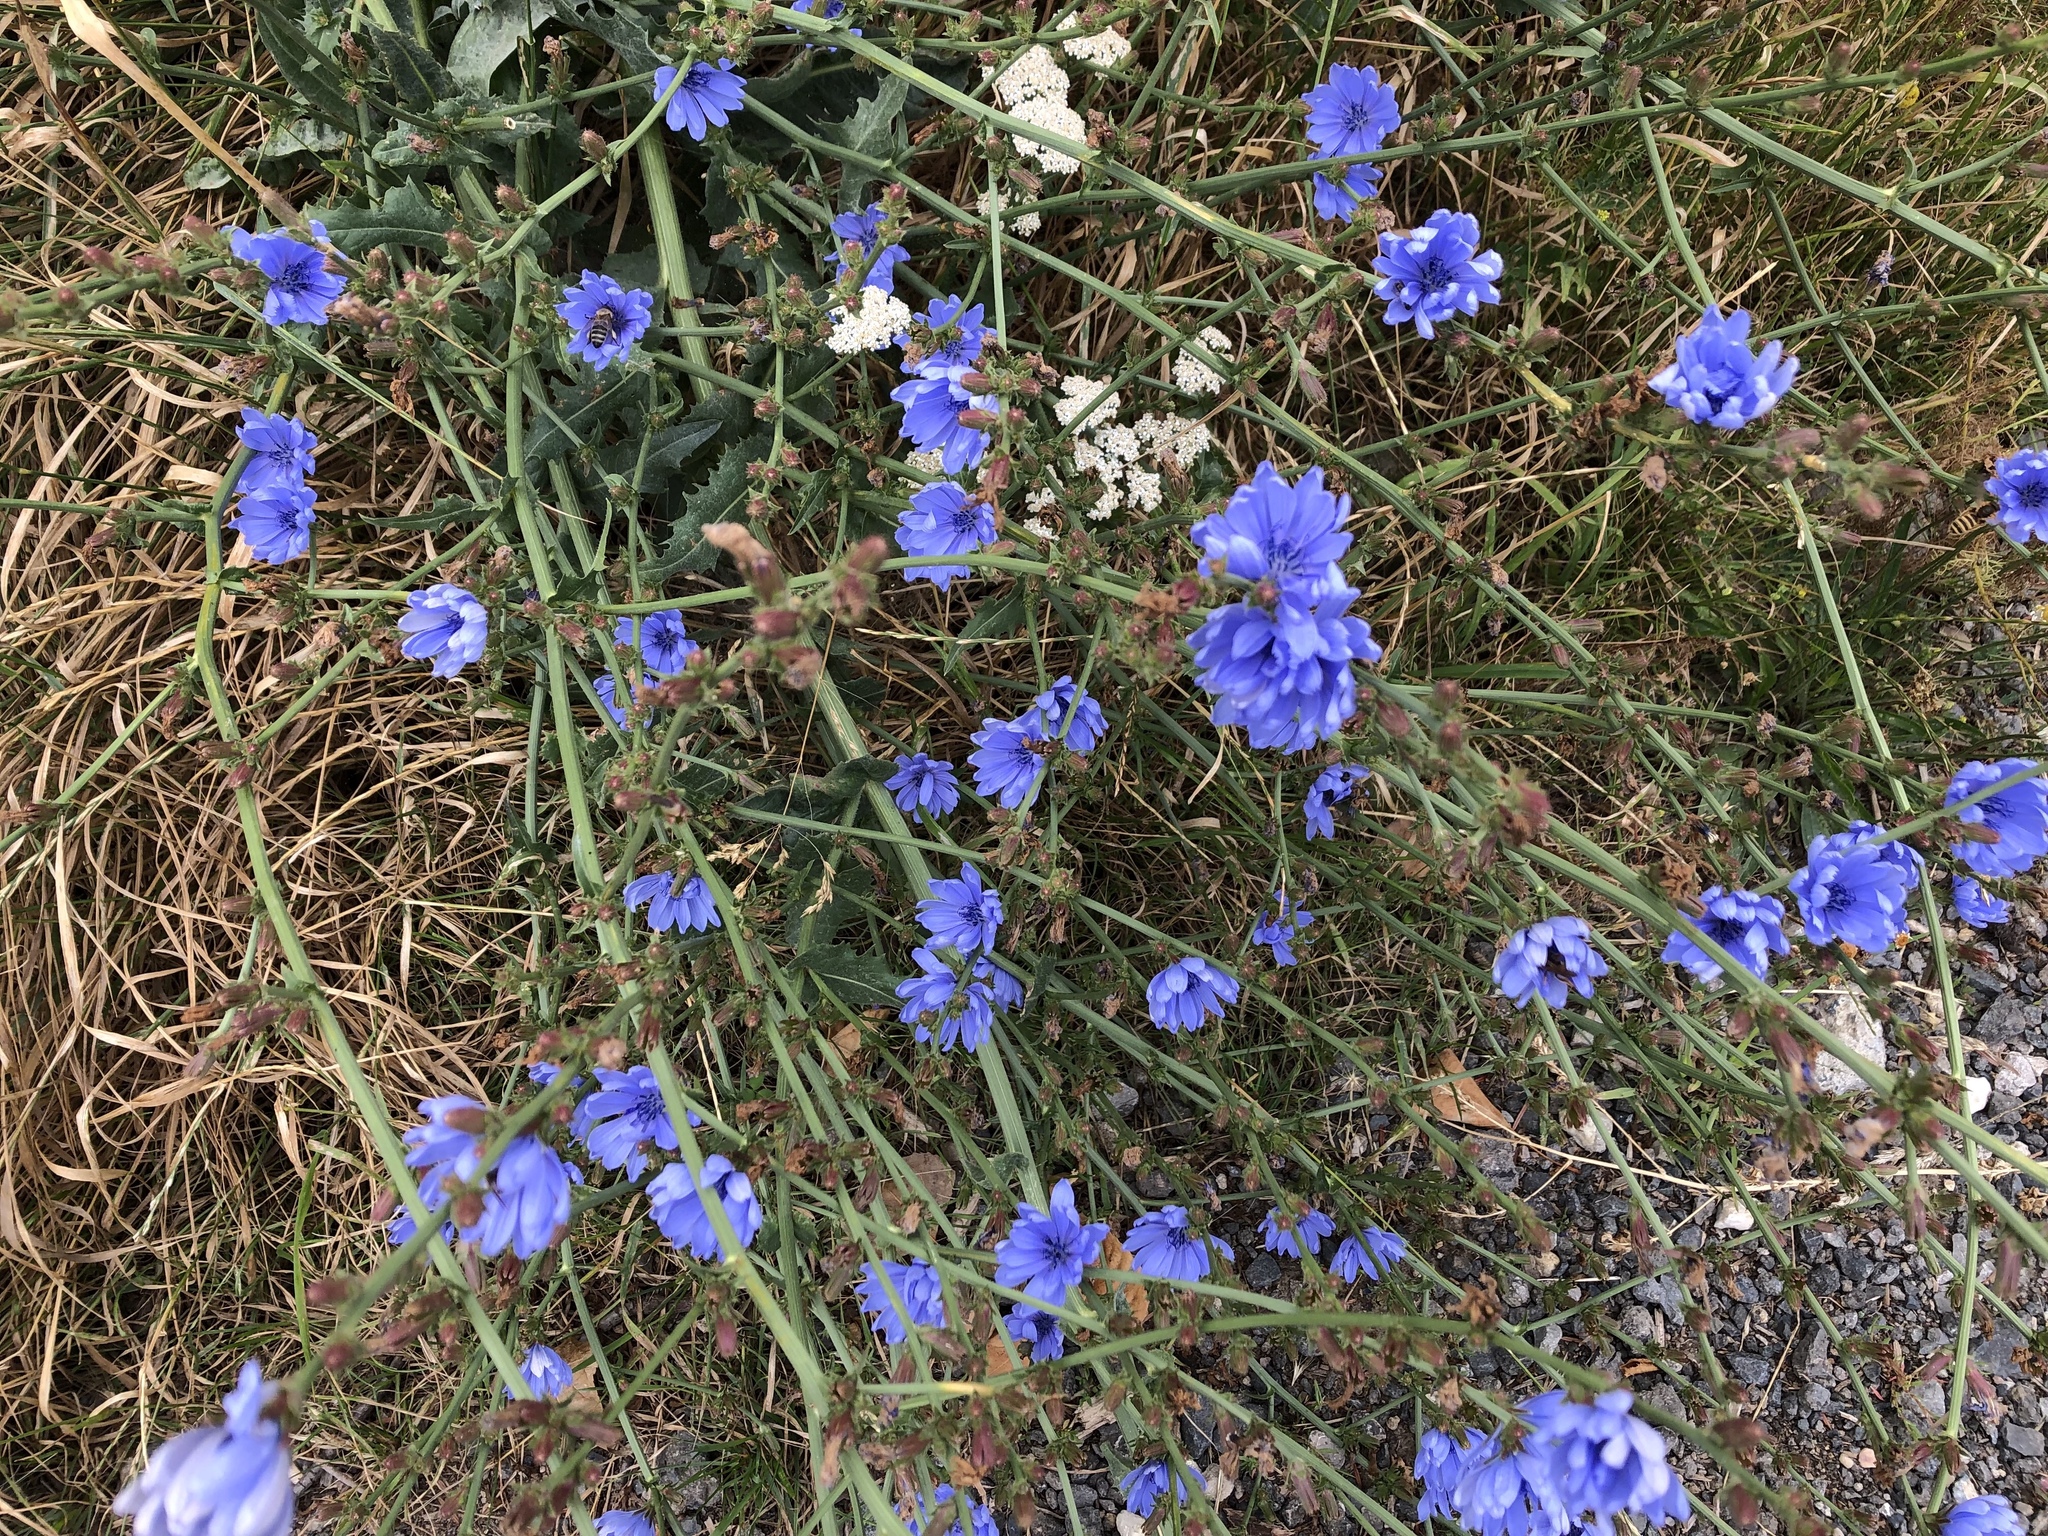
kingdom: Plantae
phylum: Tracheophyta
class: Magnoliopsida
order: Asterales
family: Asteraceae
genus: Cichorium
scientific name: Cichorium intybus
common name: Chicory
